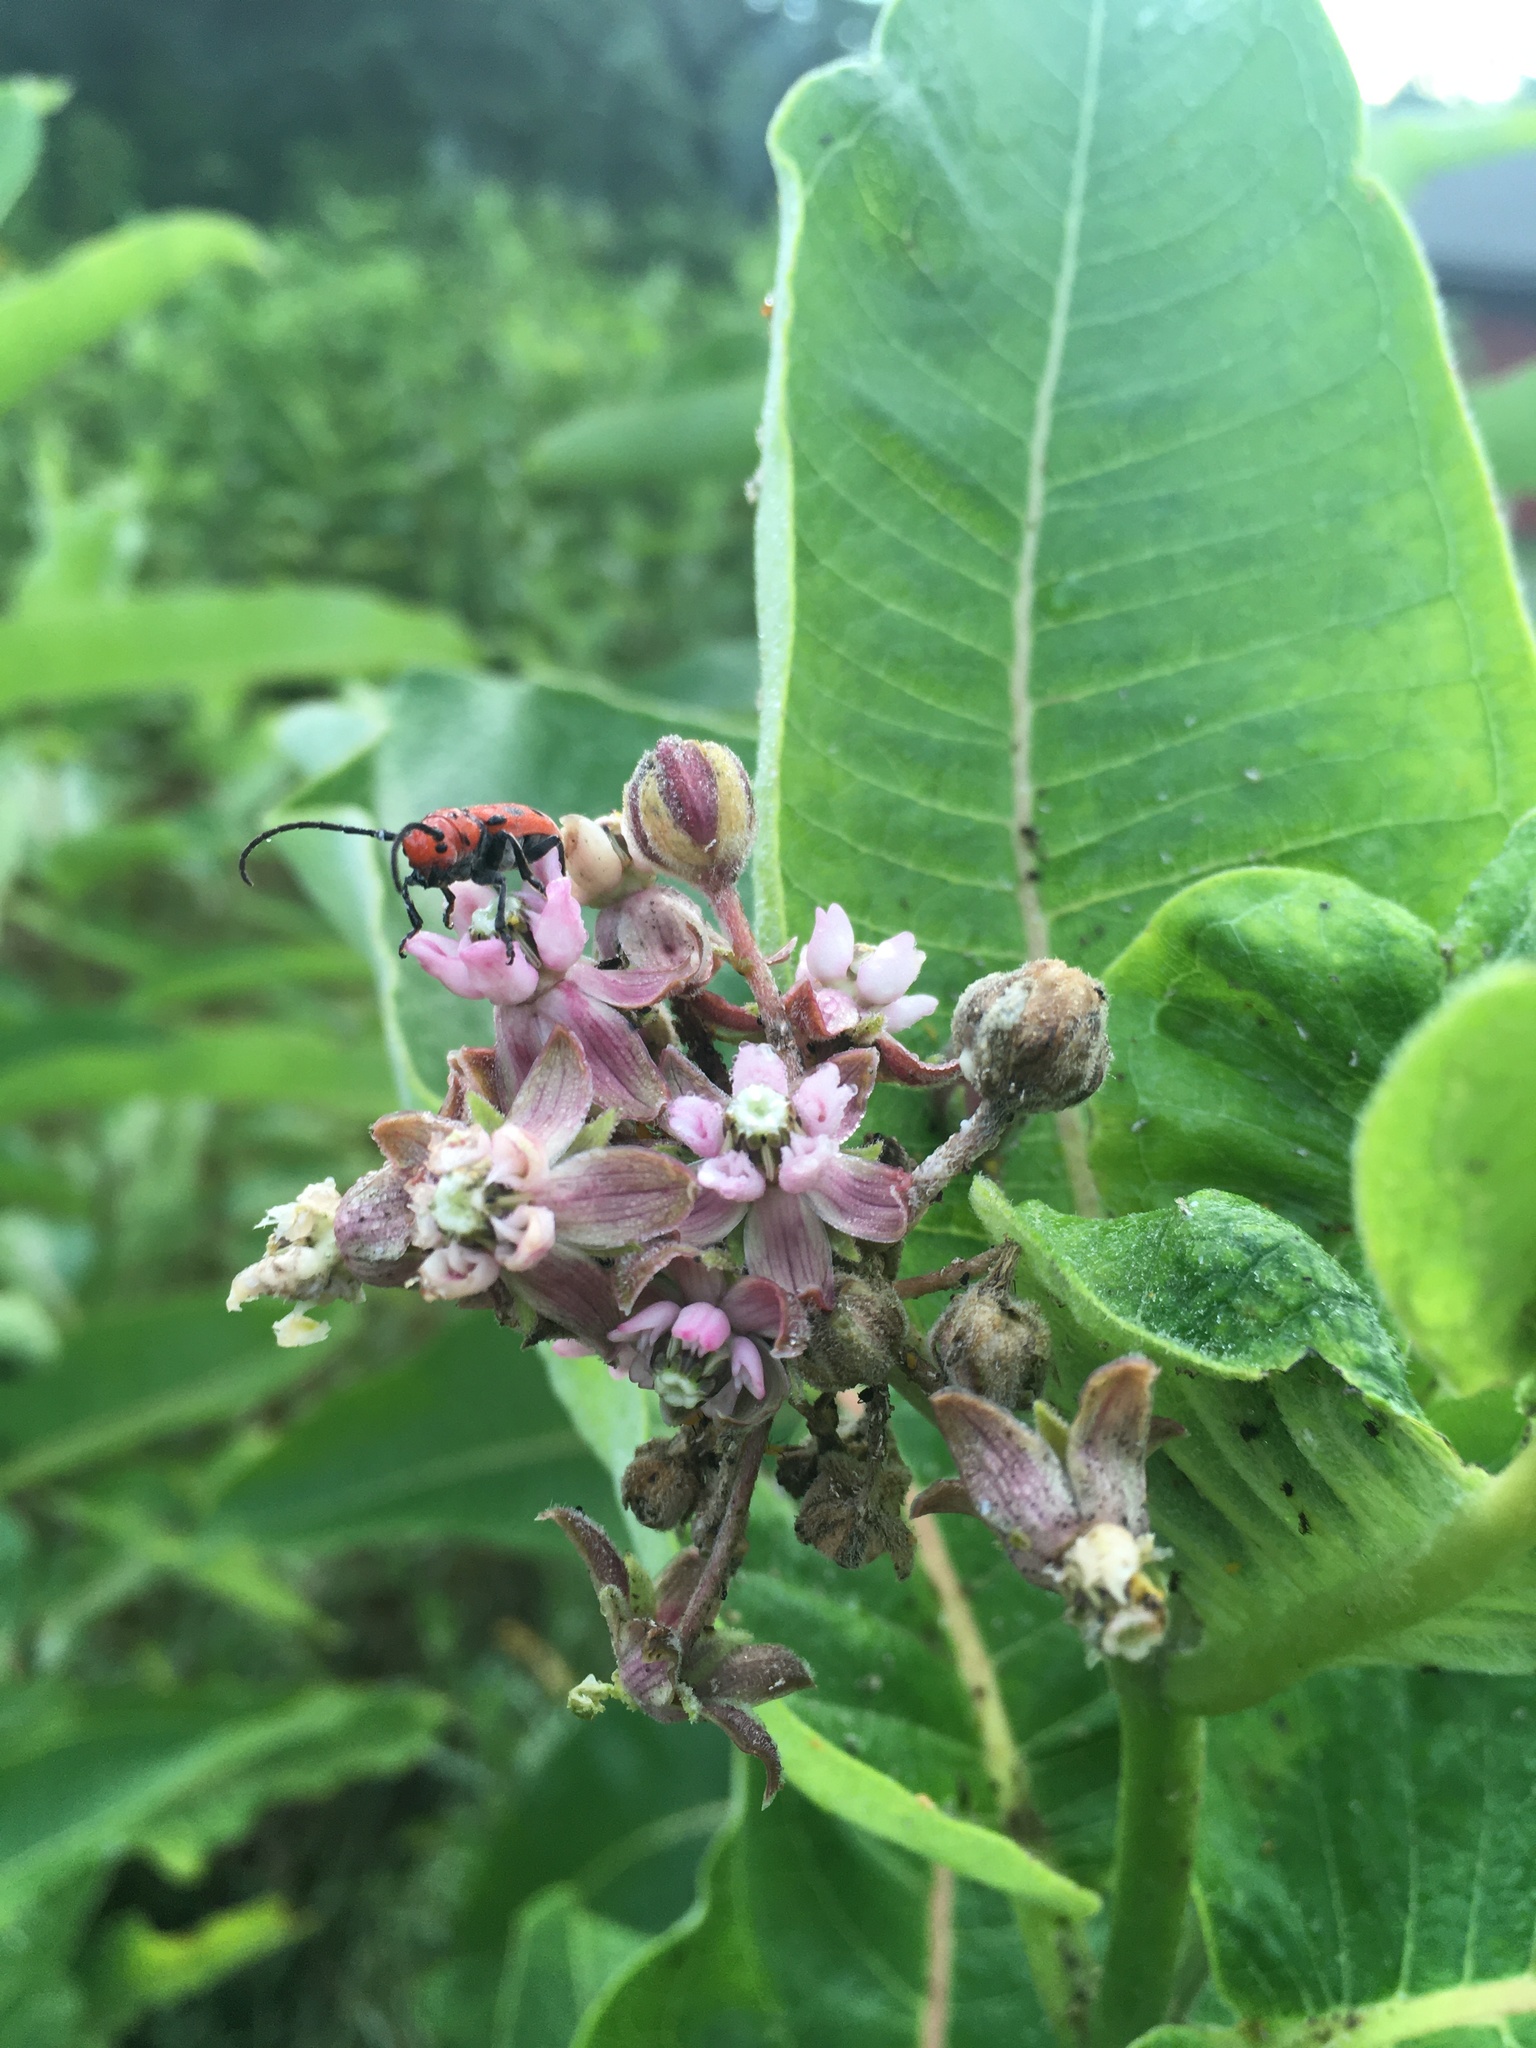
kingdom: Plantae
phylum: Tracheophyta
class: Magnoliopsida
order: Gentianales
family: Apocynaceae
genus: Asclepias
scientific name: Asclepias syriaca
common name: Common milkweed
